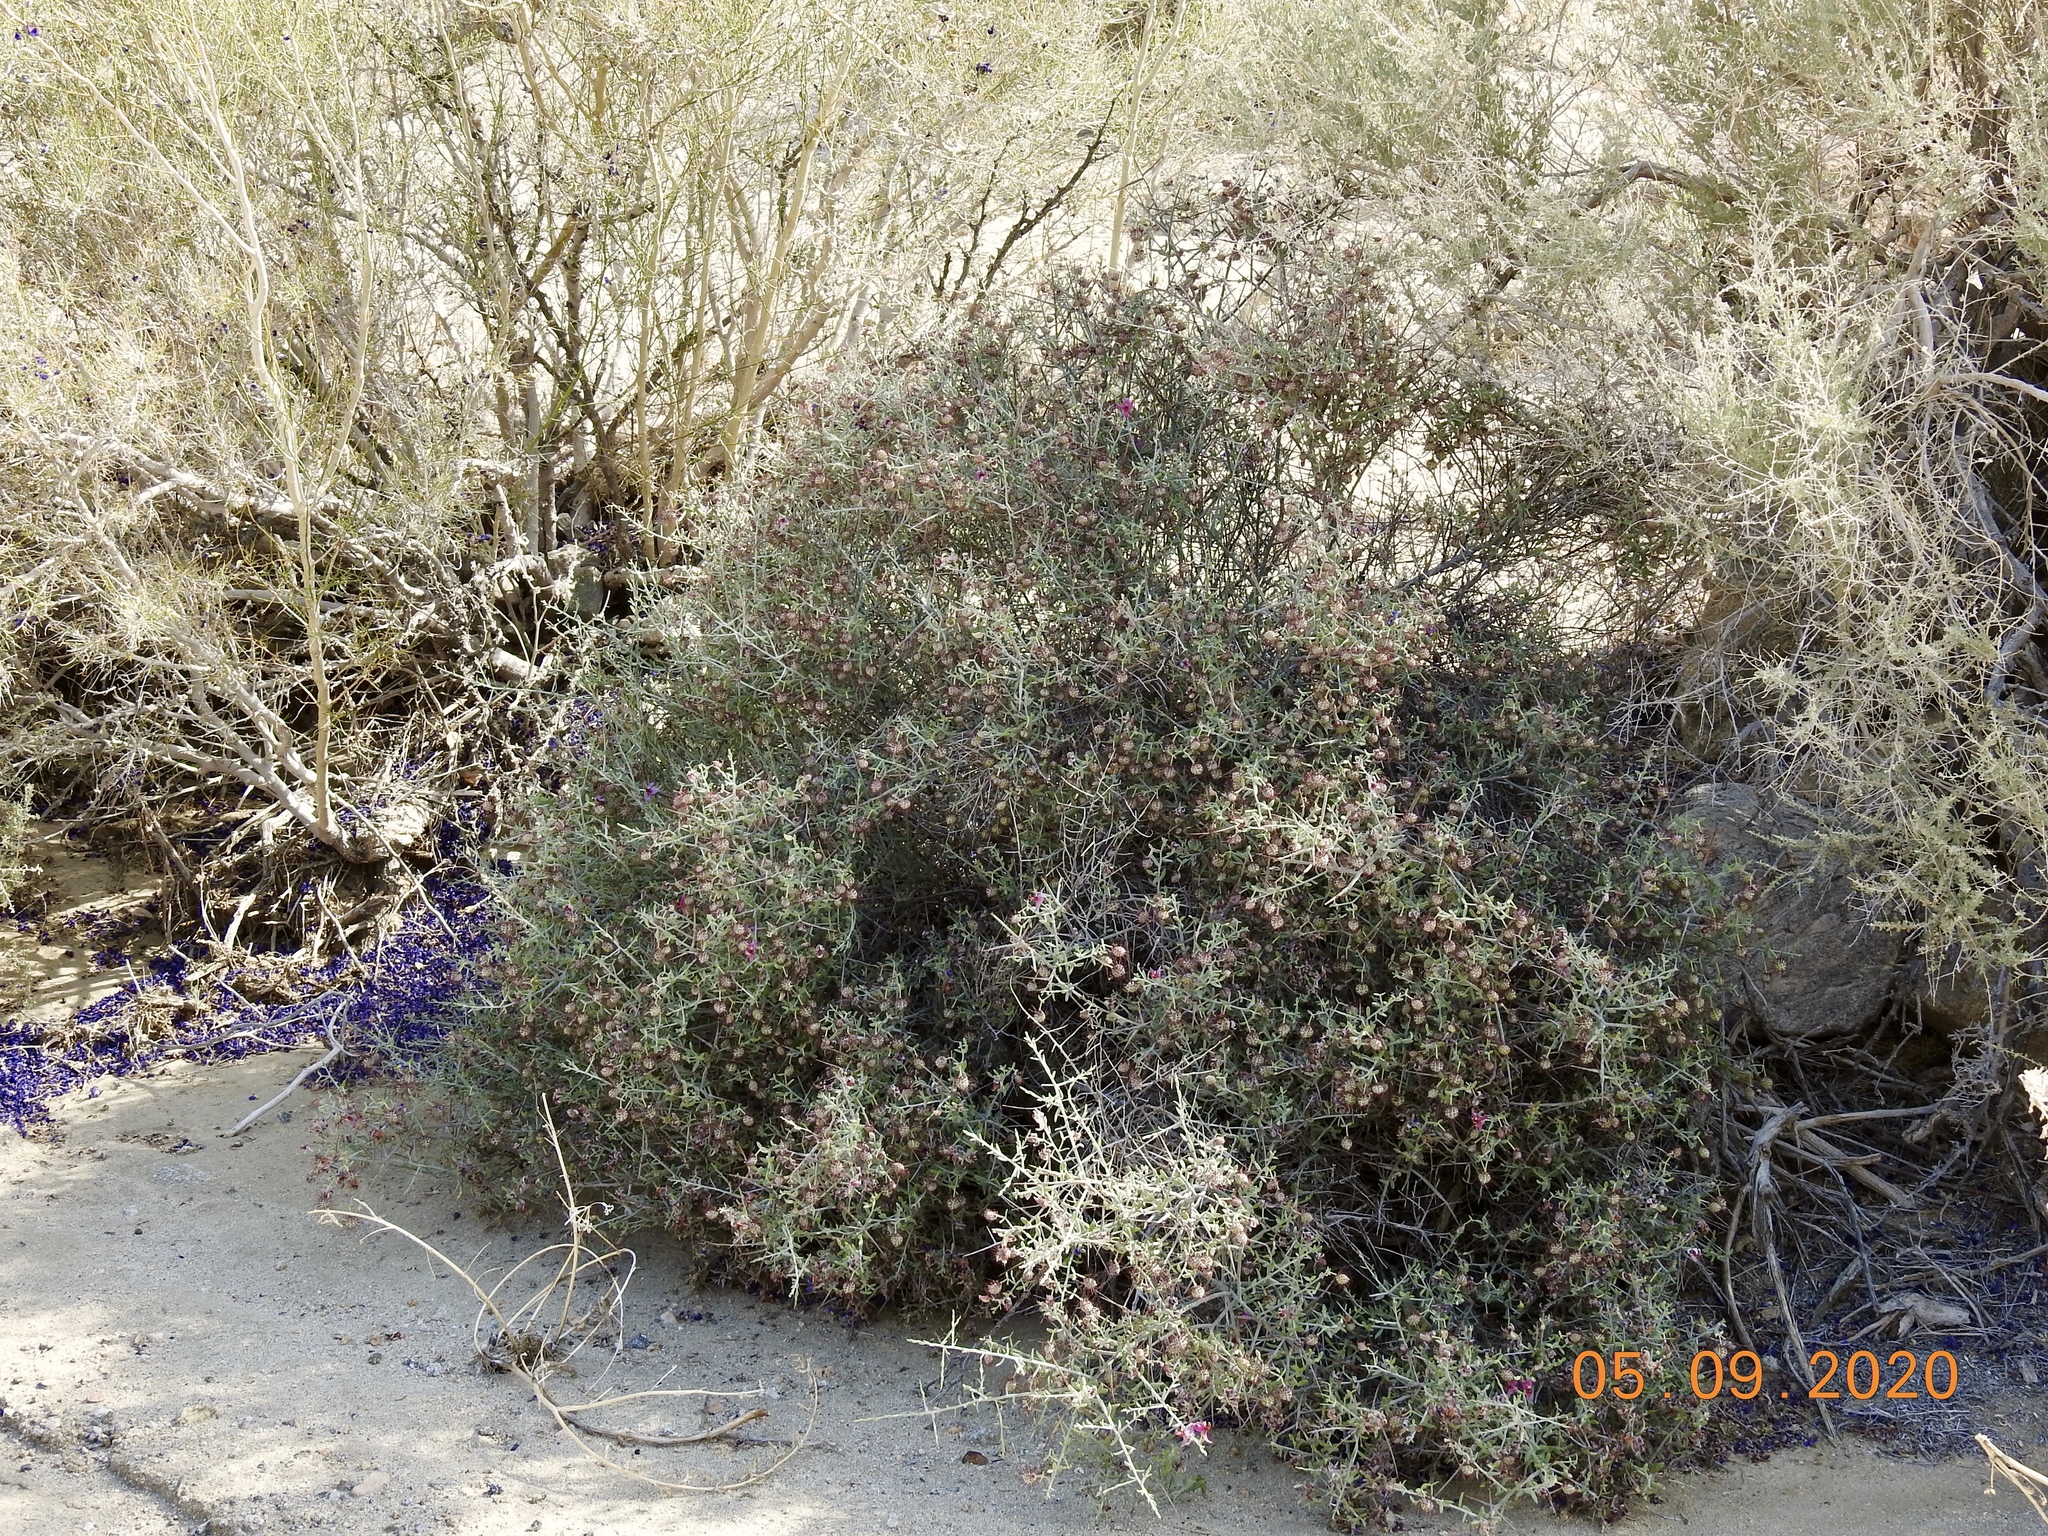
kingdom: Plantae
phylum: Tracheophyta
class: Magnoliopsida
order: Zygophyllales
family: Krameriaceae
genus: Krameria
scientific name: Krameria bicolor
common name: White ratany
